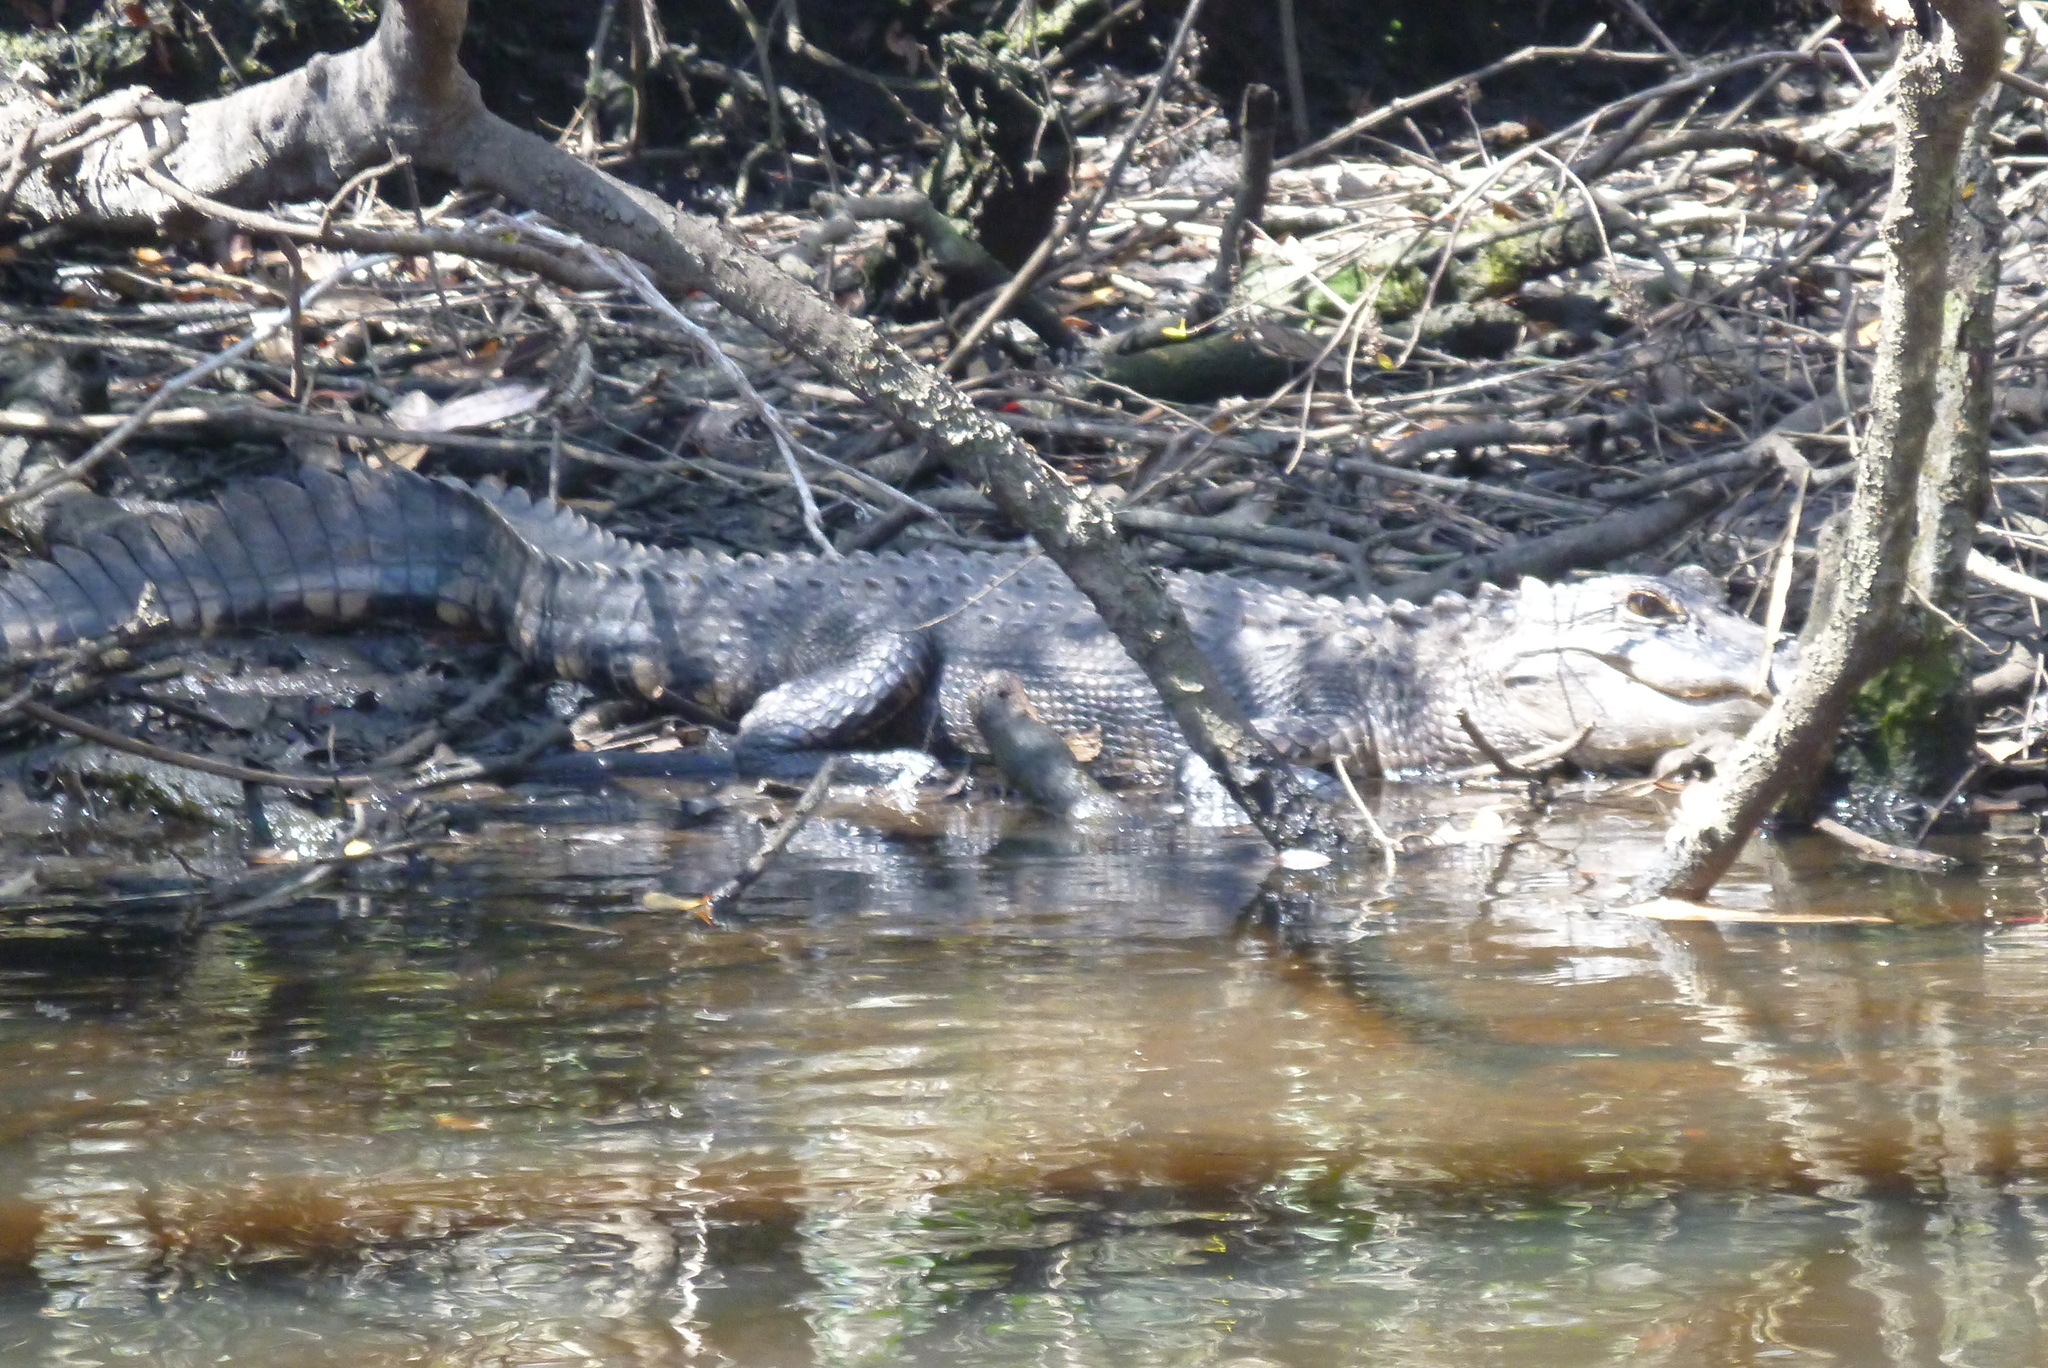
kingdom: Animalia
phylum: Chordata
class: Crocodylia
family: Alligatoridae
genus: Alligator
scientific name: Alligator mississippiensis
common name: American alligator
